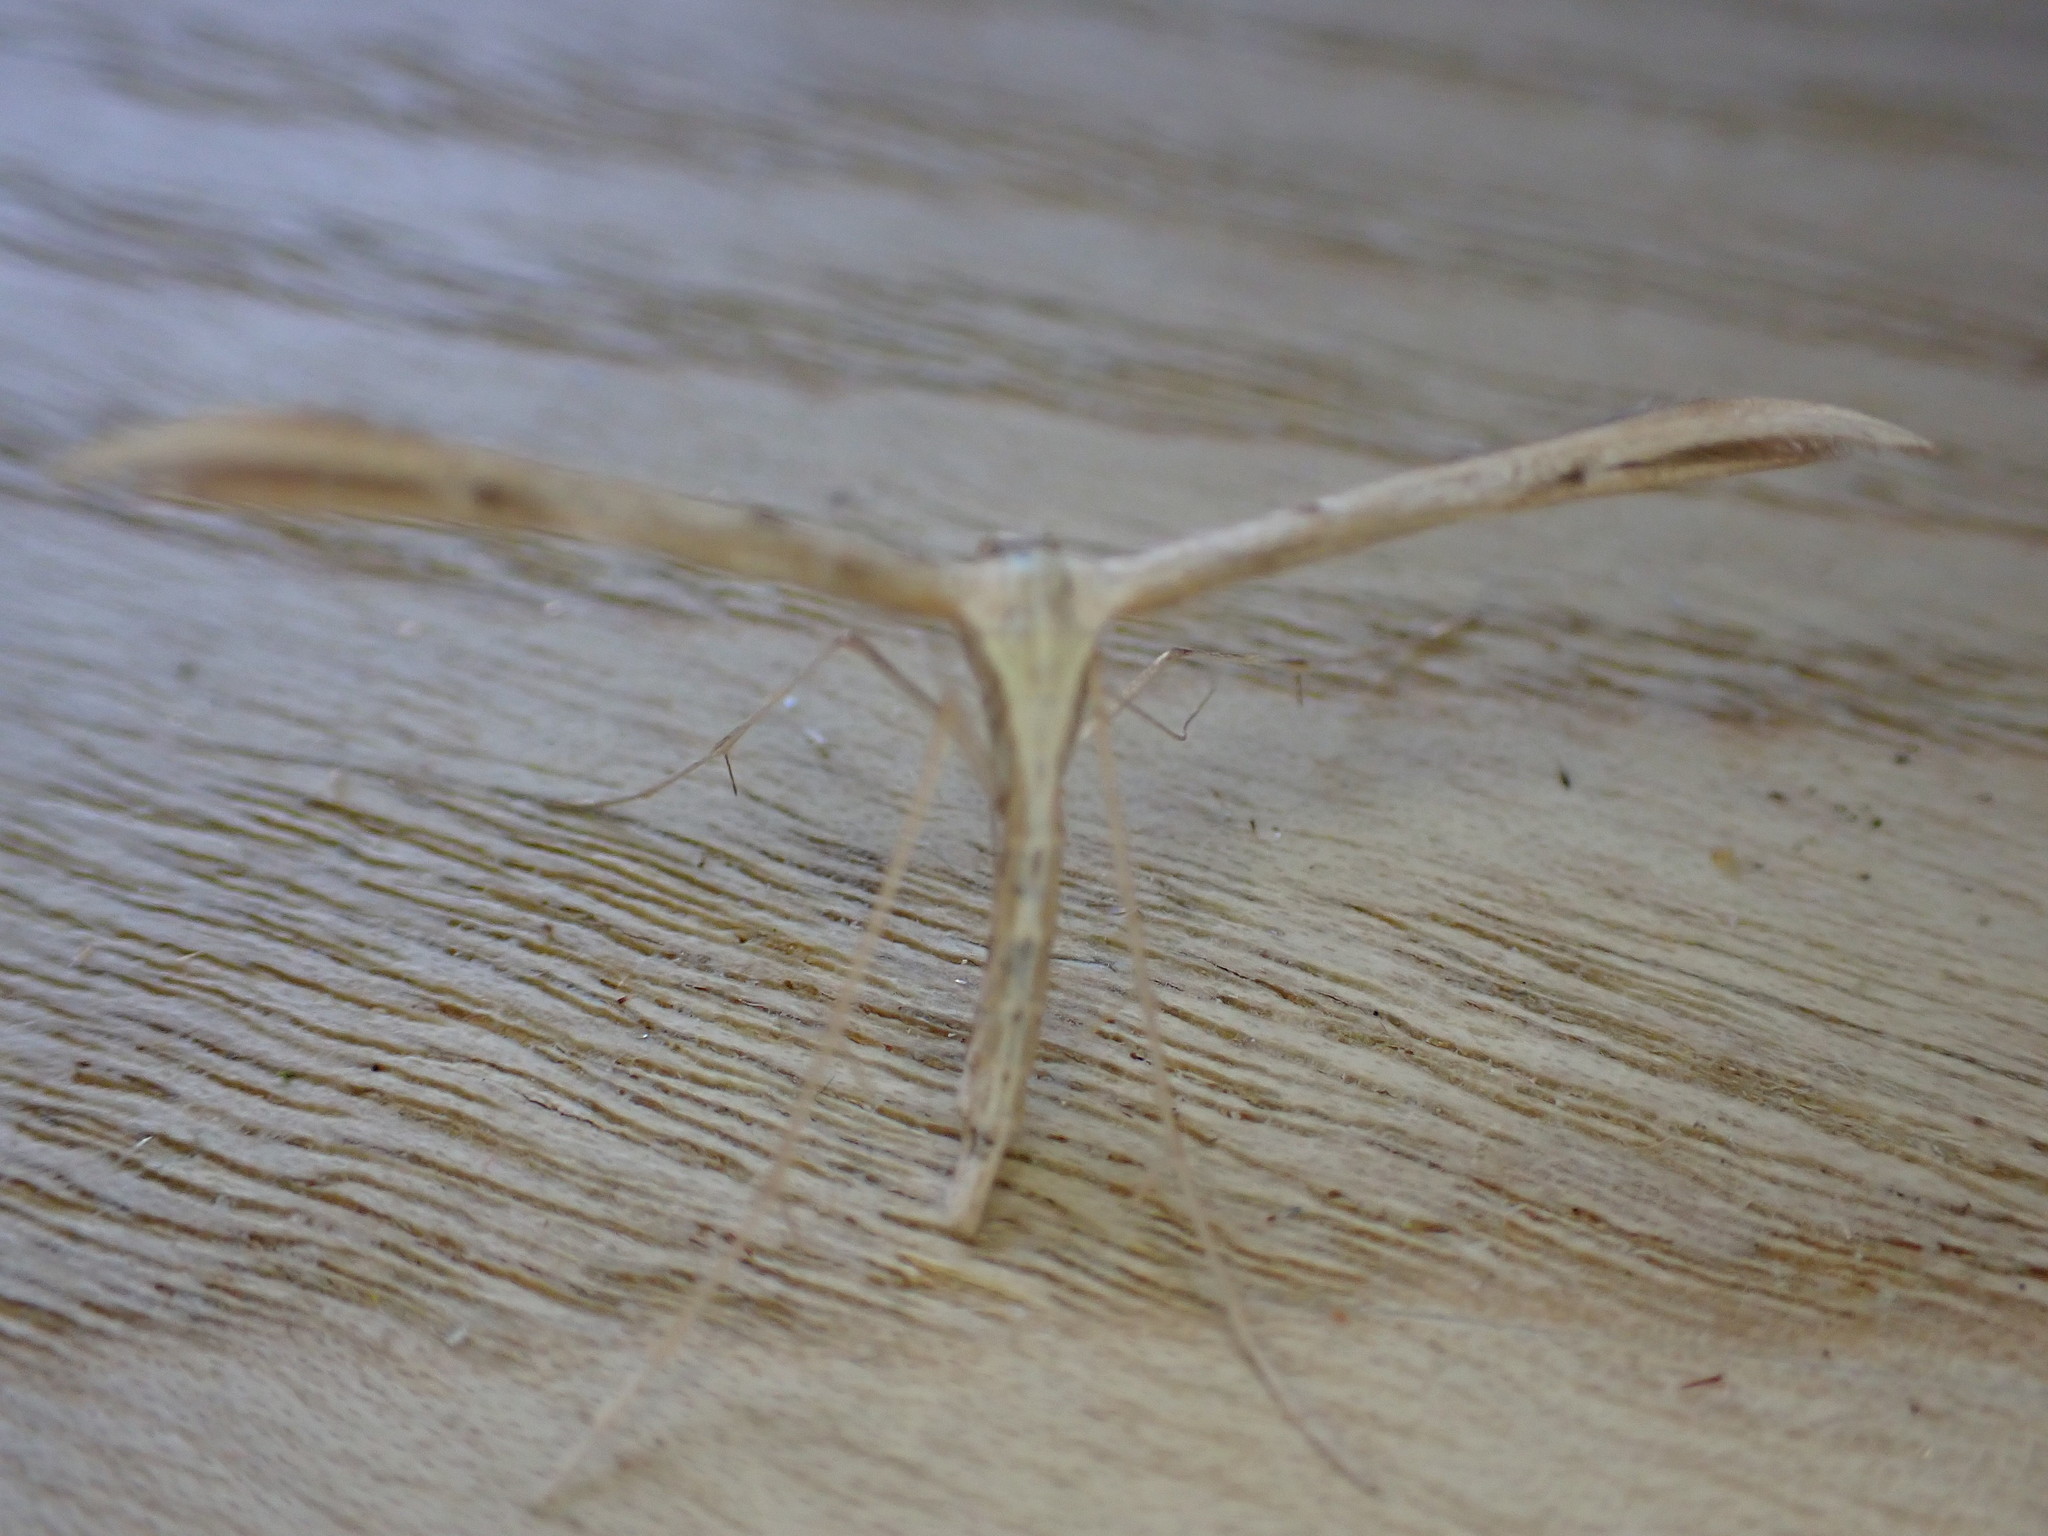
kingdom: Animalia
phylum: Arthropoda
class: Insecta
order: Lepidoptera
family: Pterophoridae
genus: Emmelina
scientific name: Emmelina monodactyla
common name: Common plume
